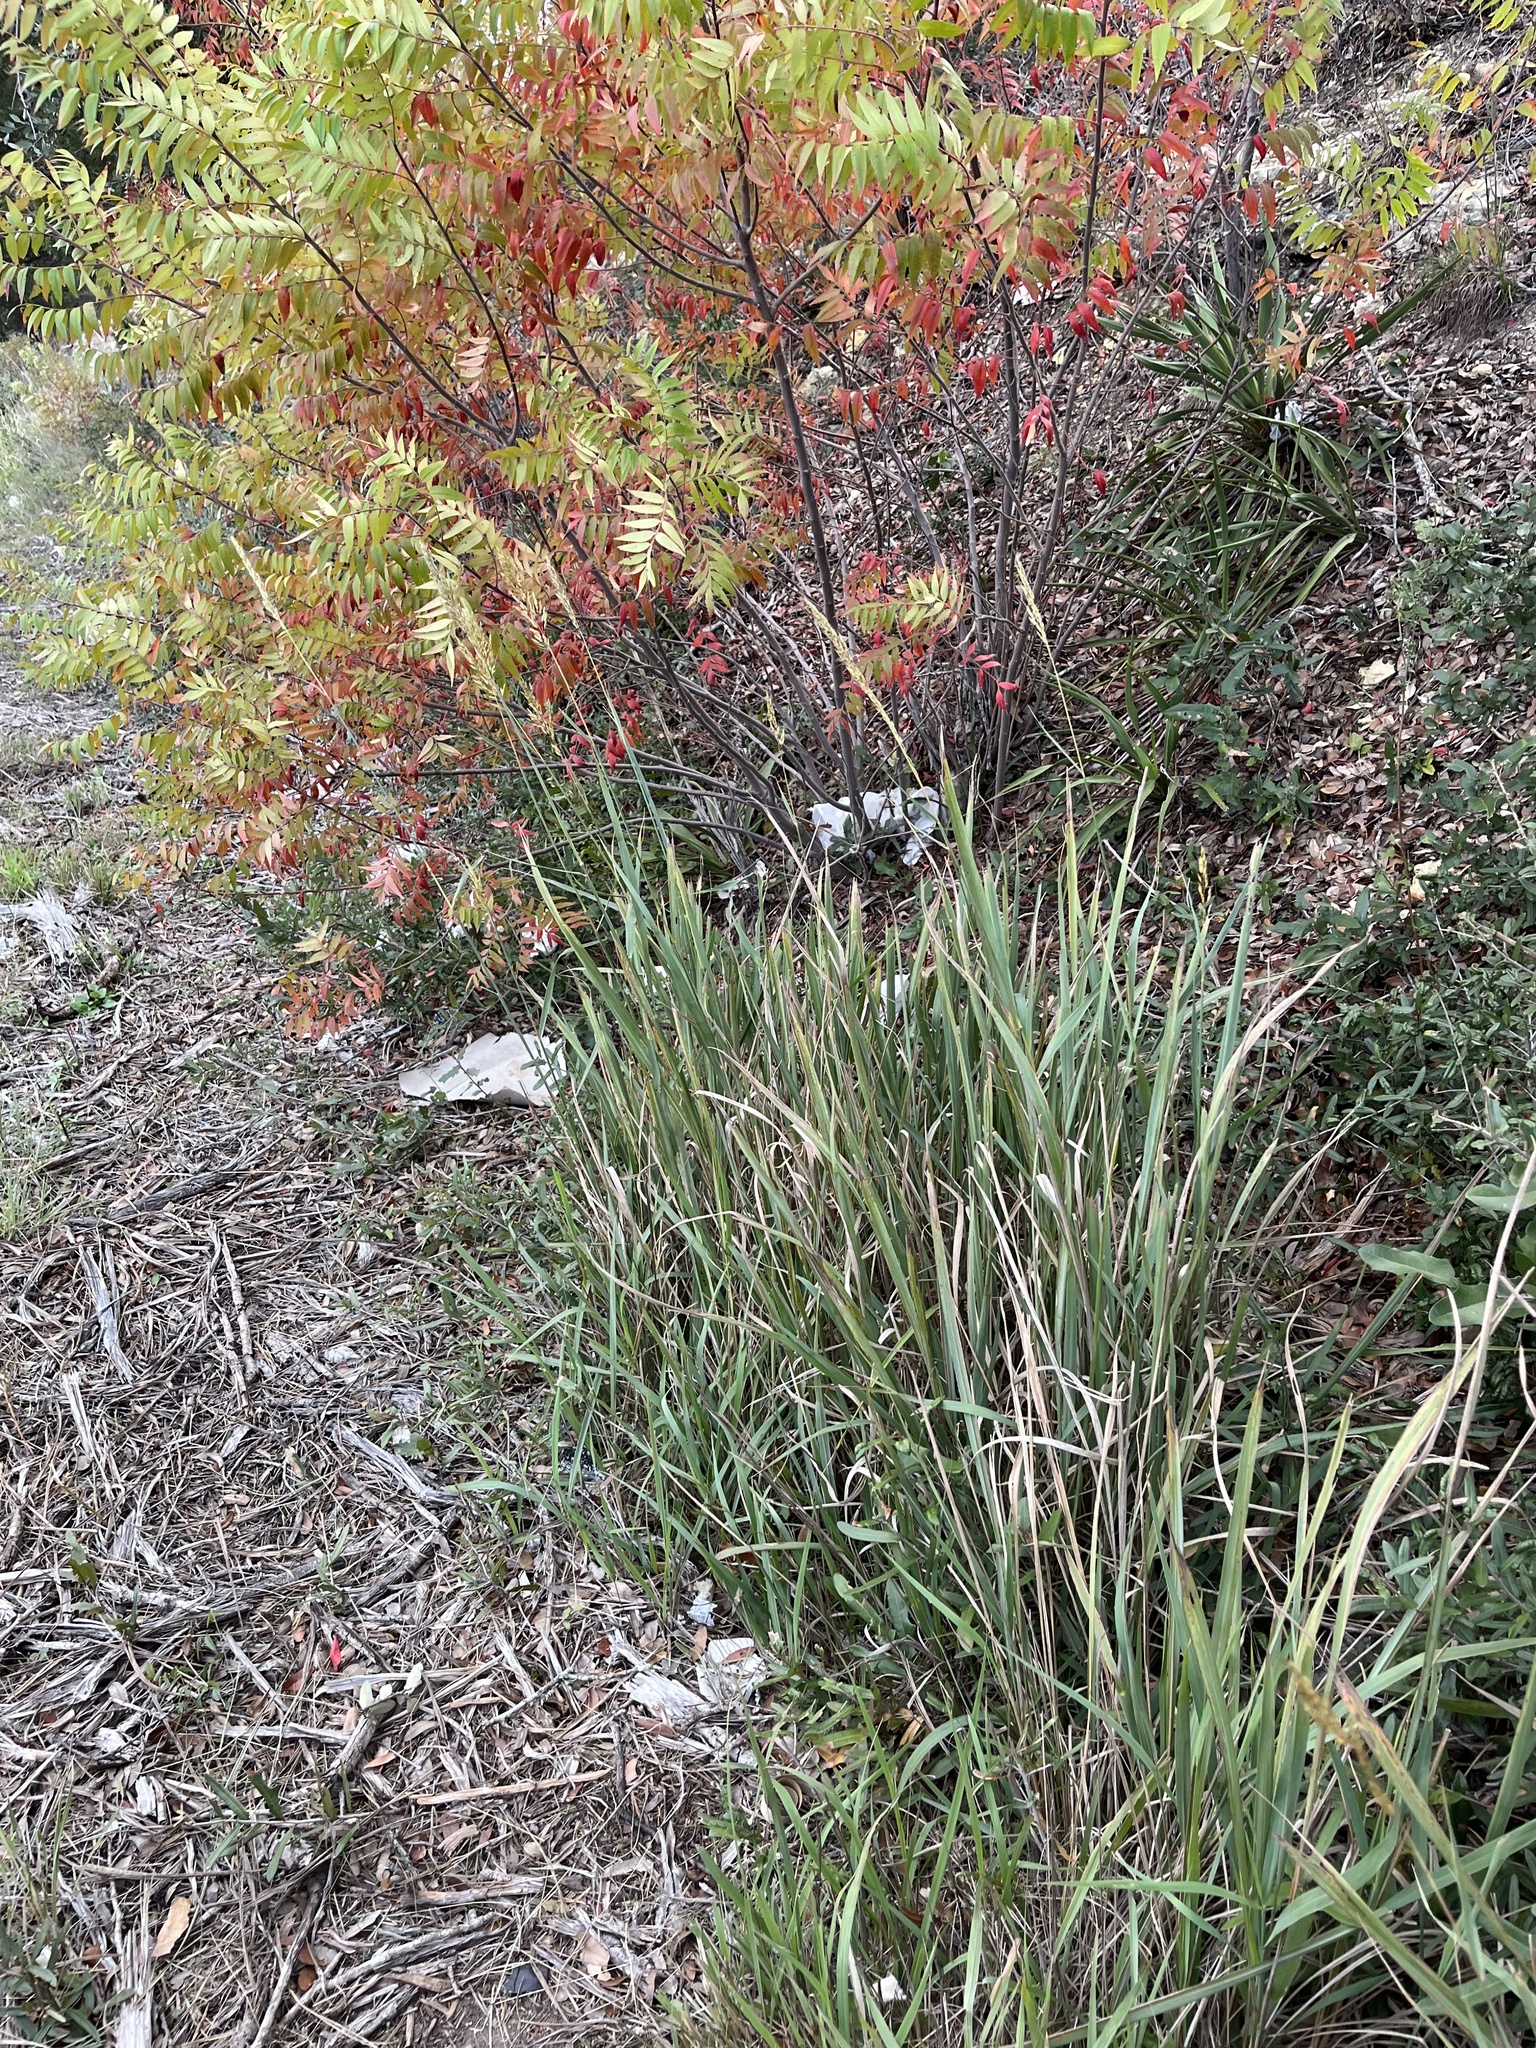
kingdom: Plantae
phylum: Tracheophyta
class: Liliopsida
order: Poales
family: Poaceae
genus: Sorghastrum
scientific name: Sorghastrum nutans
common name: Indian grass
